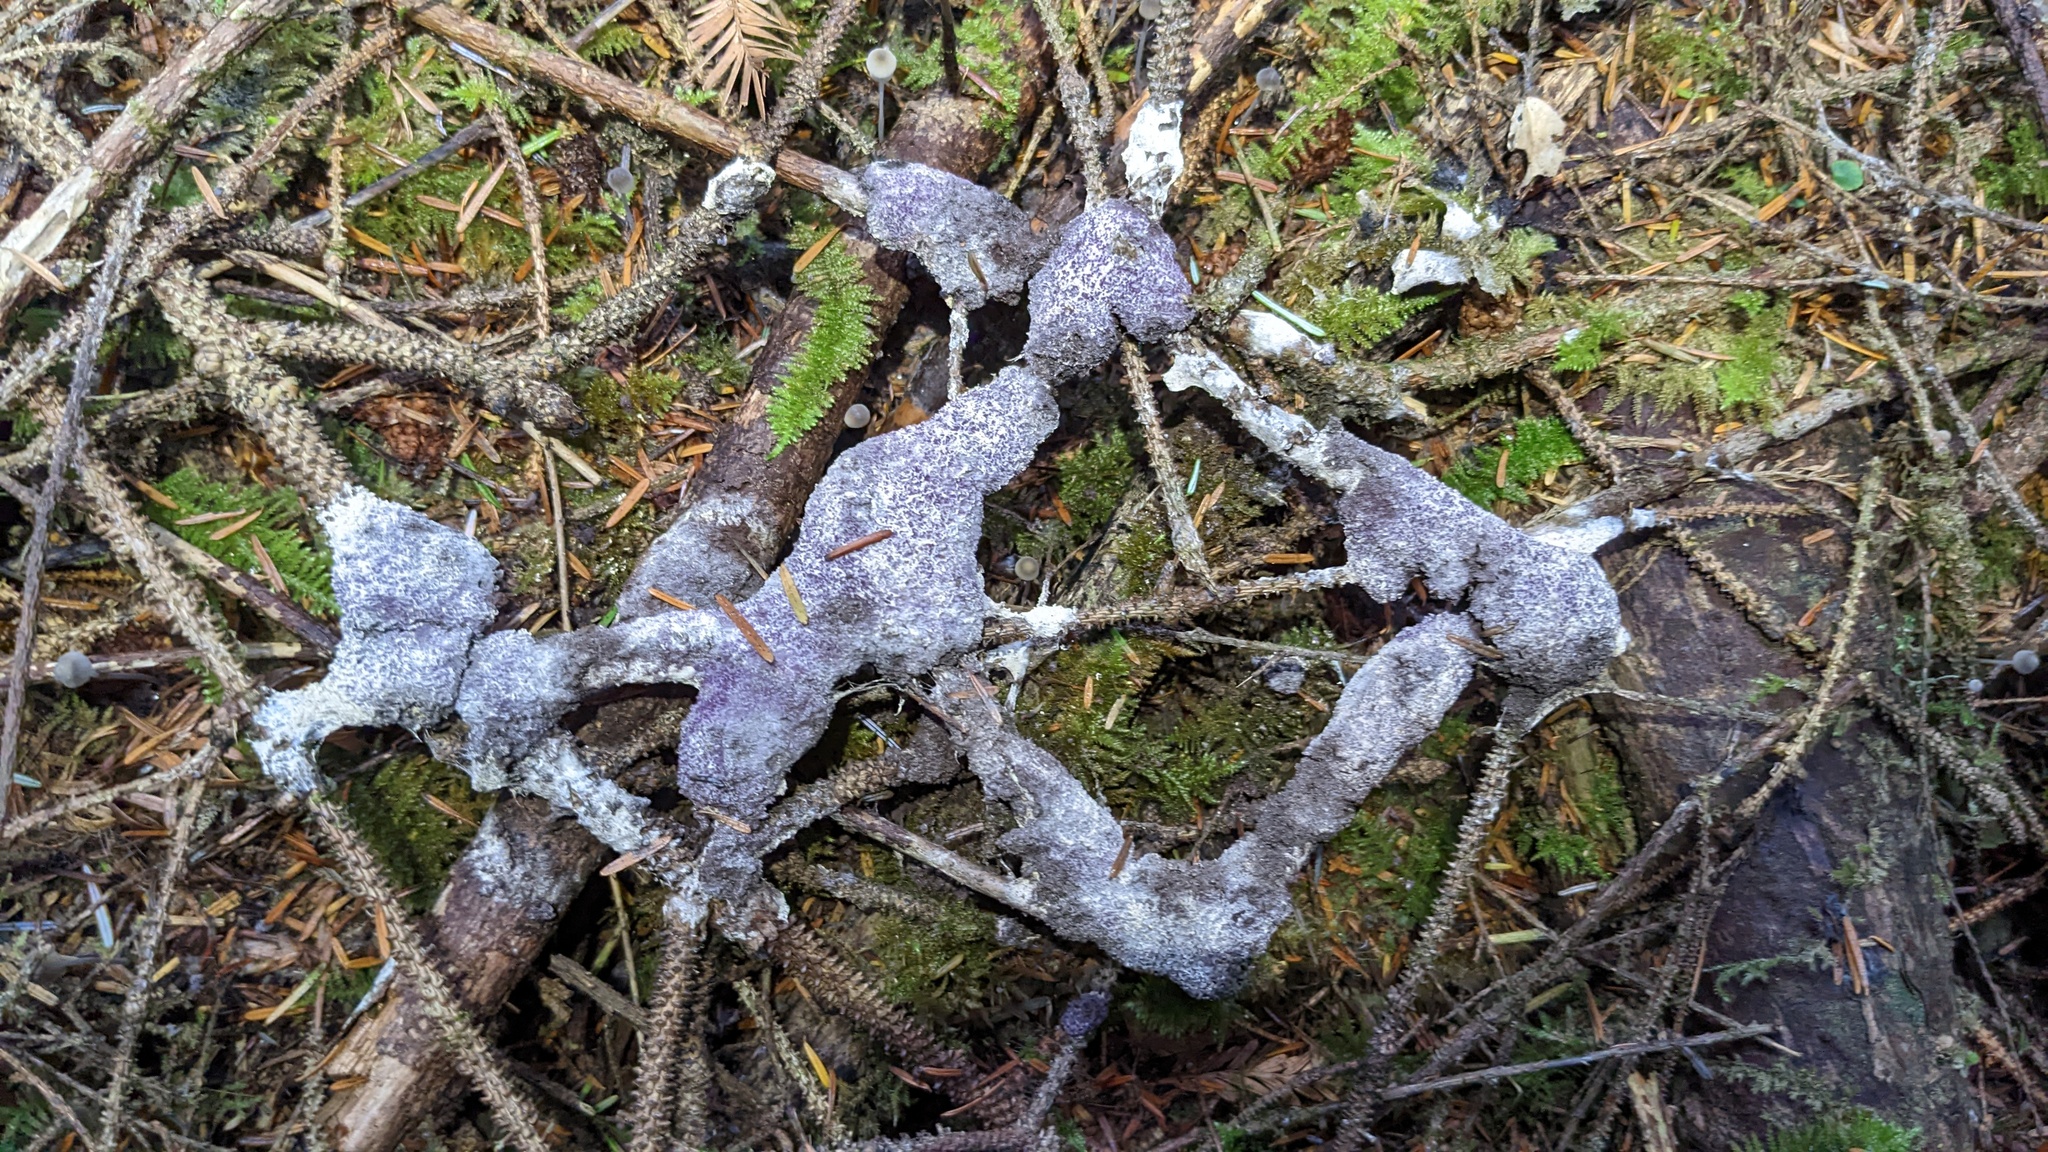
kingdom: Fungi
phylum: Ascomycota
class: Sordariomycetes
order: Hypocreales
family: Bionectriaceae
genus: Nectriopsis
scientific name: Nectriopsis violacea
